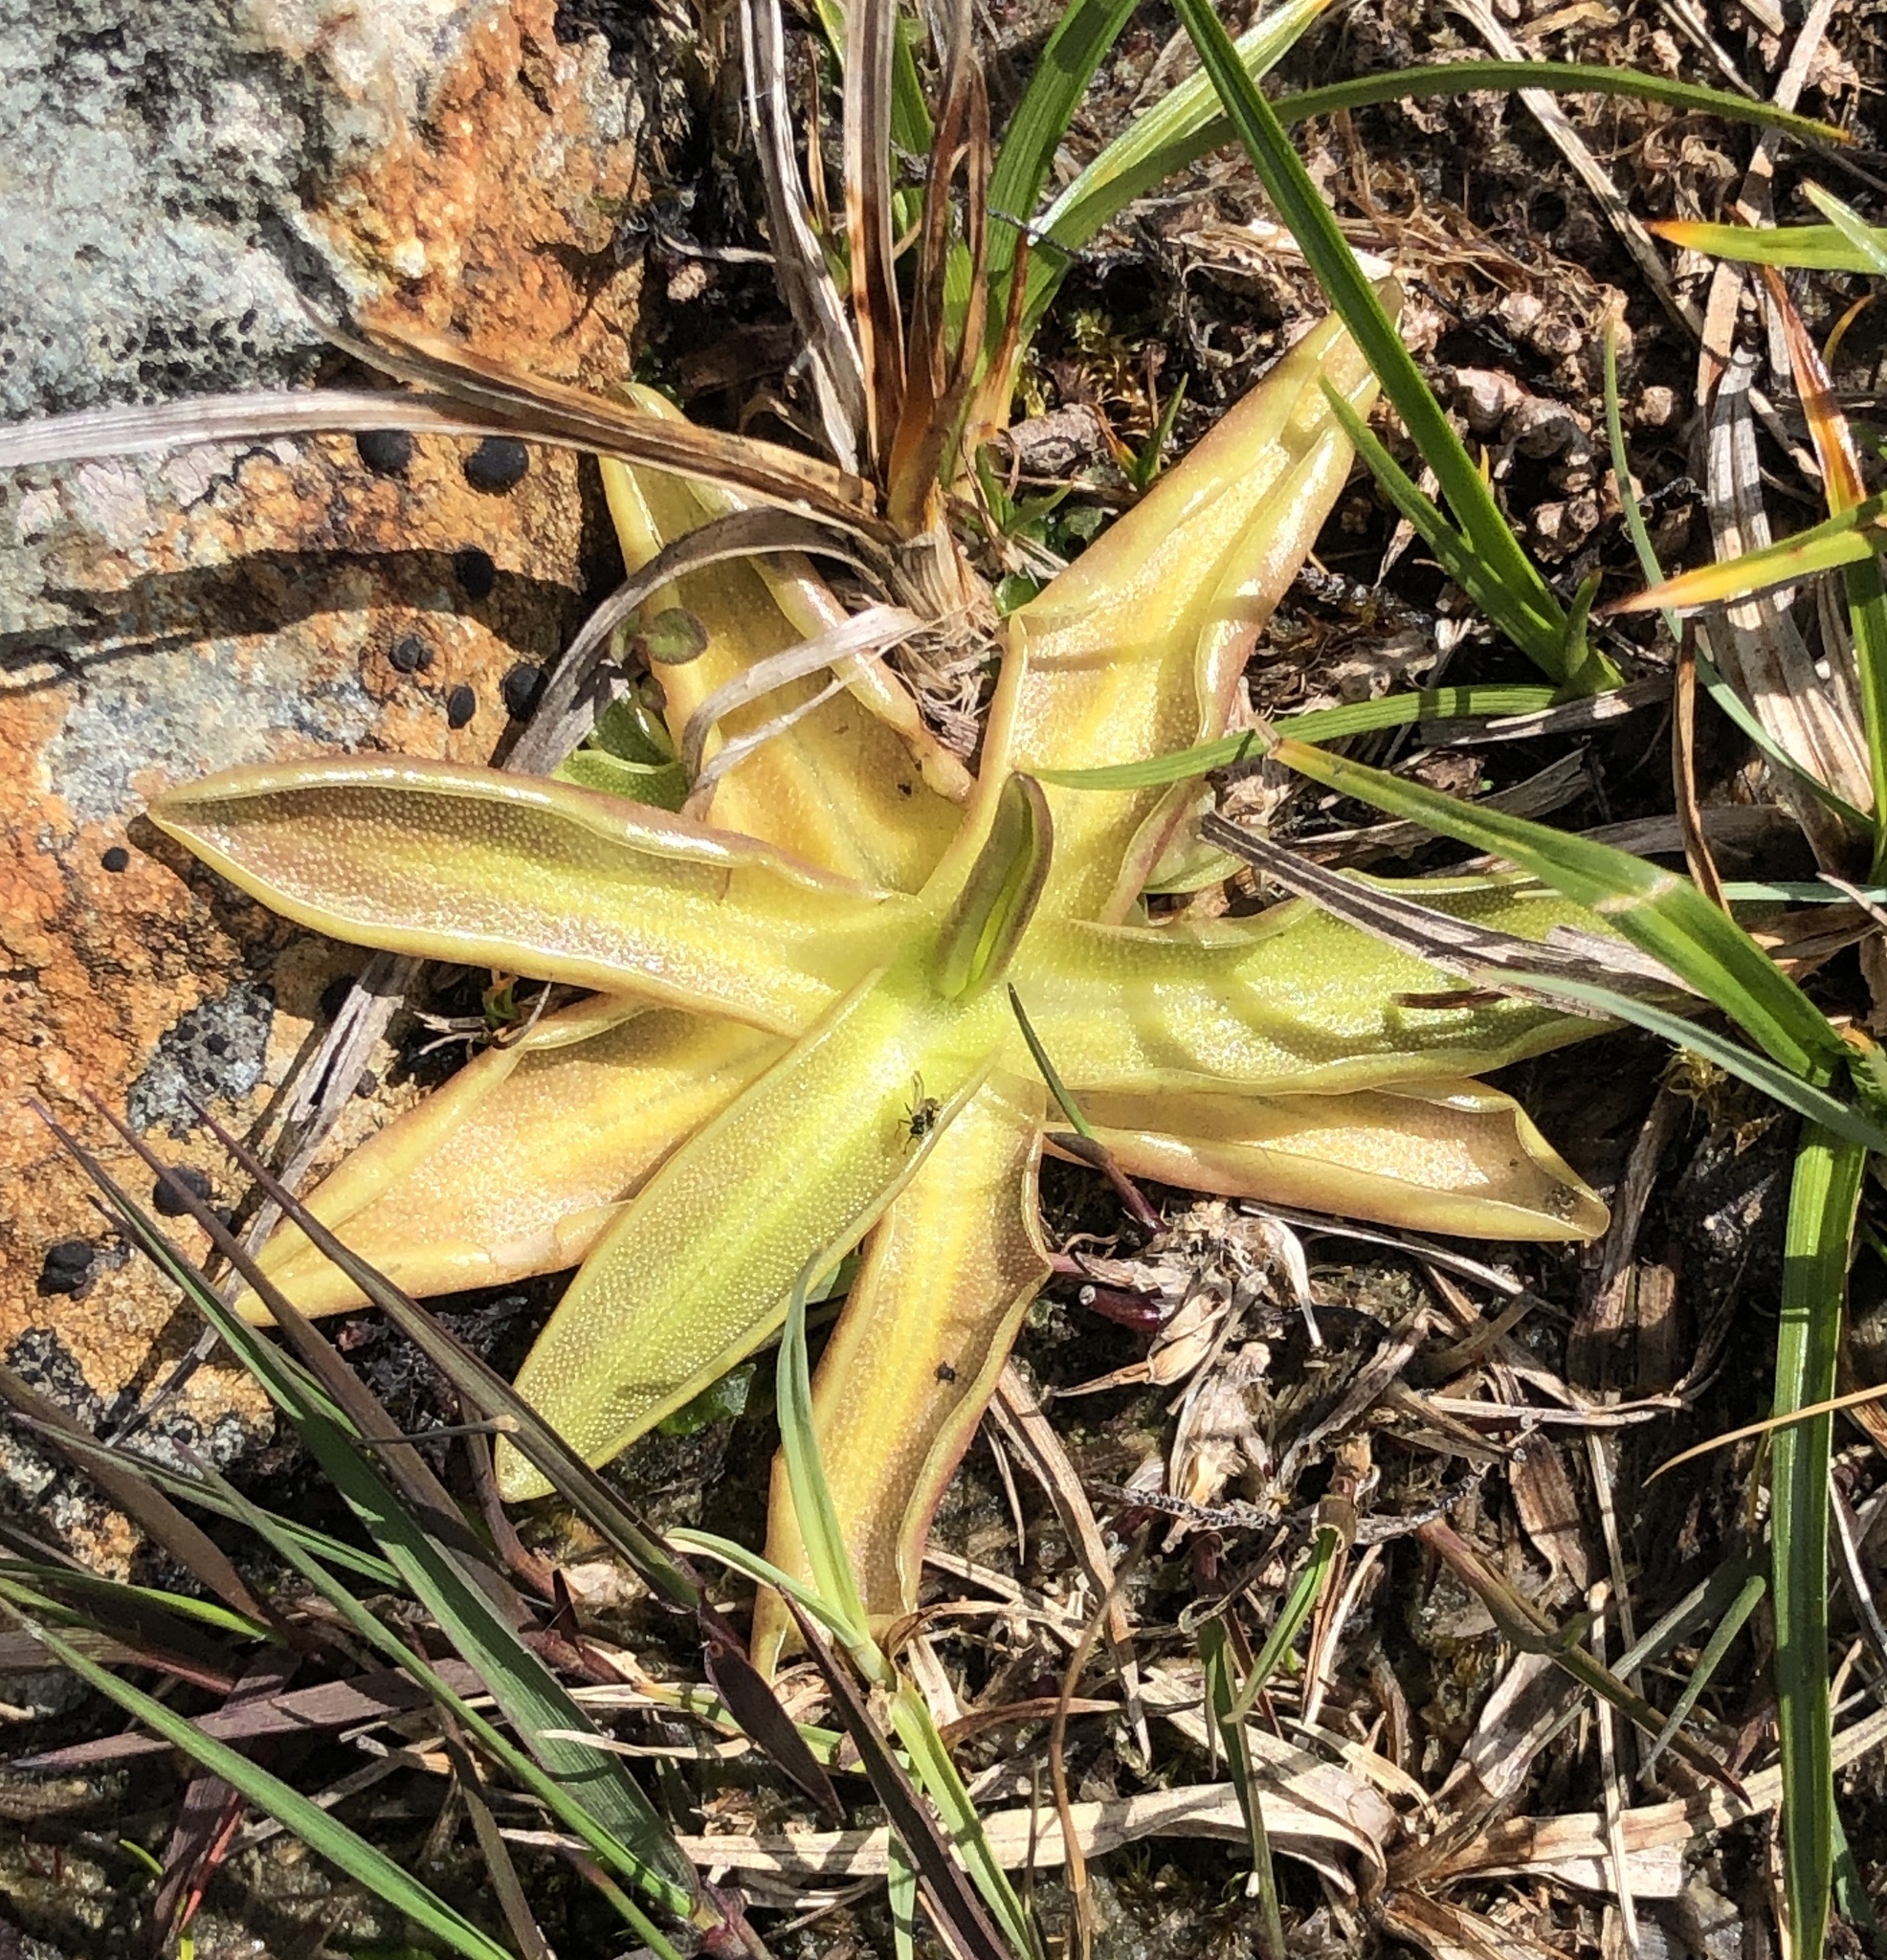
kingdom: Plantae
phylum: Tracheophyta
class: Magnoliopsida
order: Lamiales
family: Lentibulariaceae
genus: Pinguicula
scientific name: Pinguicula vulgaris
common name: Common butterwort
